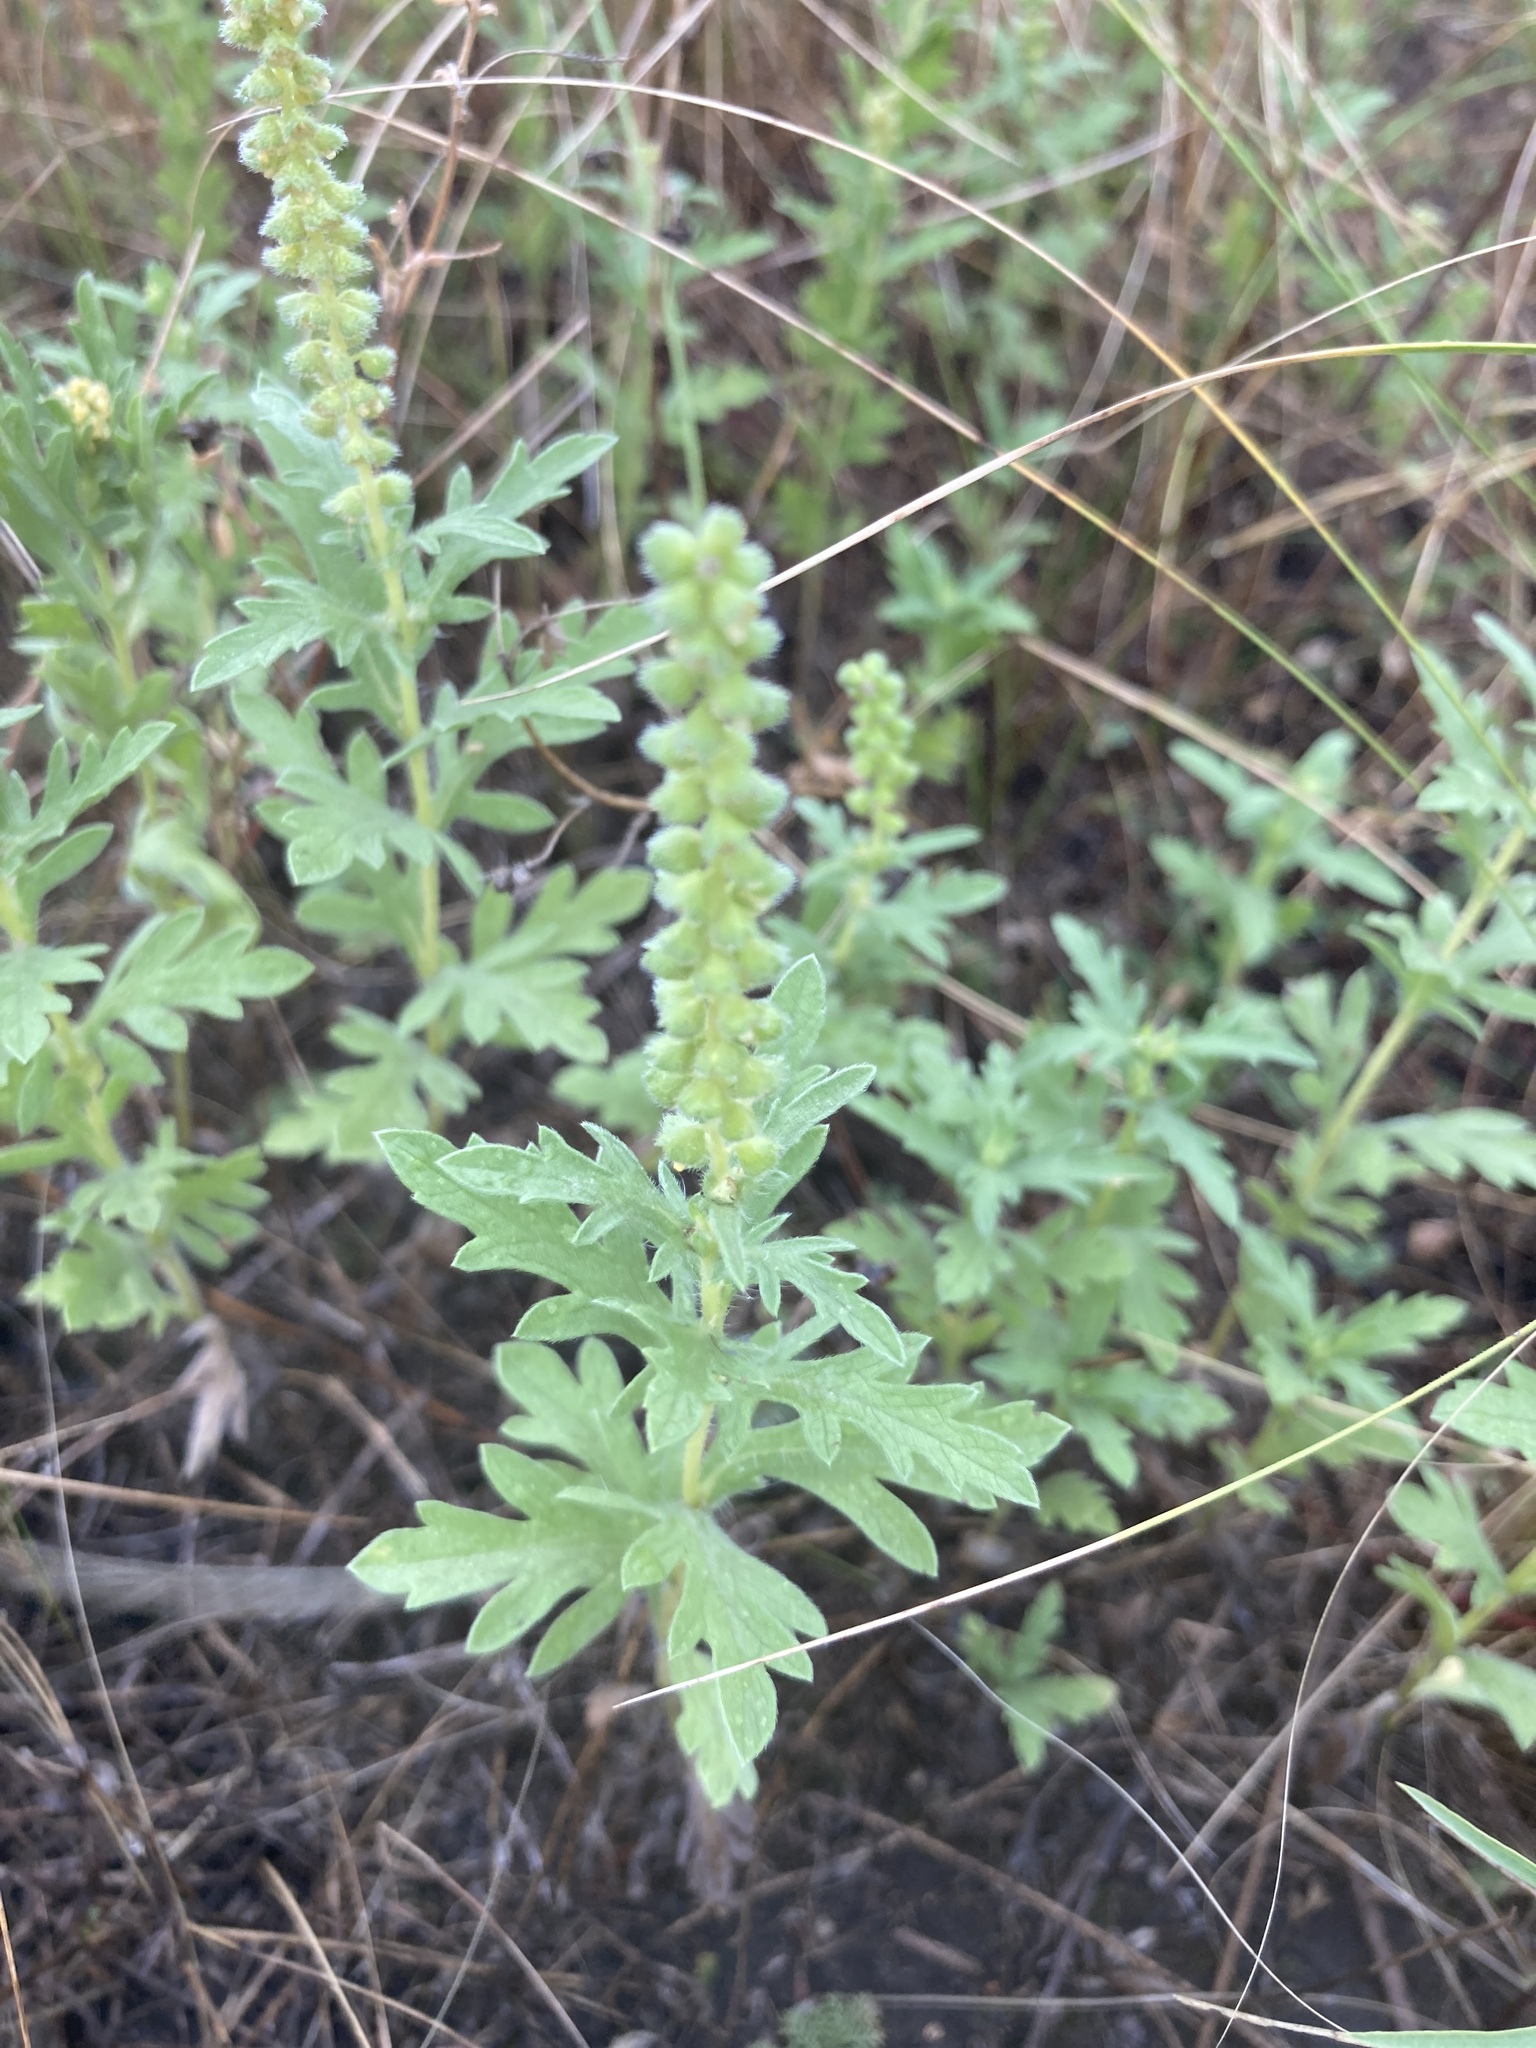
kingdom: Plantae
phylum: Tracheophyta
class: Magnoliopsida
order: Asterales
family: Asteraceae
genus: Ambrosia
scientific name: Ambrosia psilostachya
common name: Perennial ragweed
